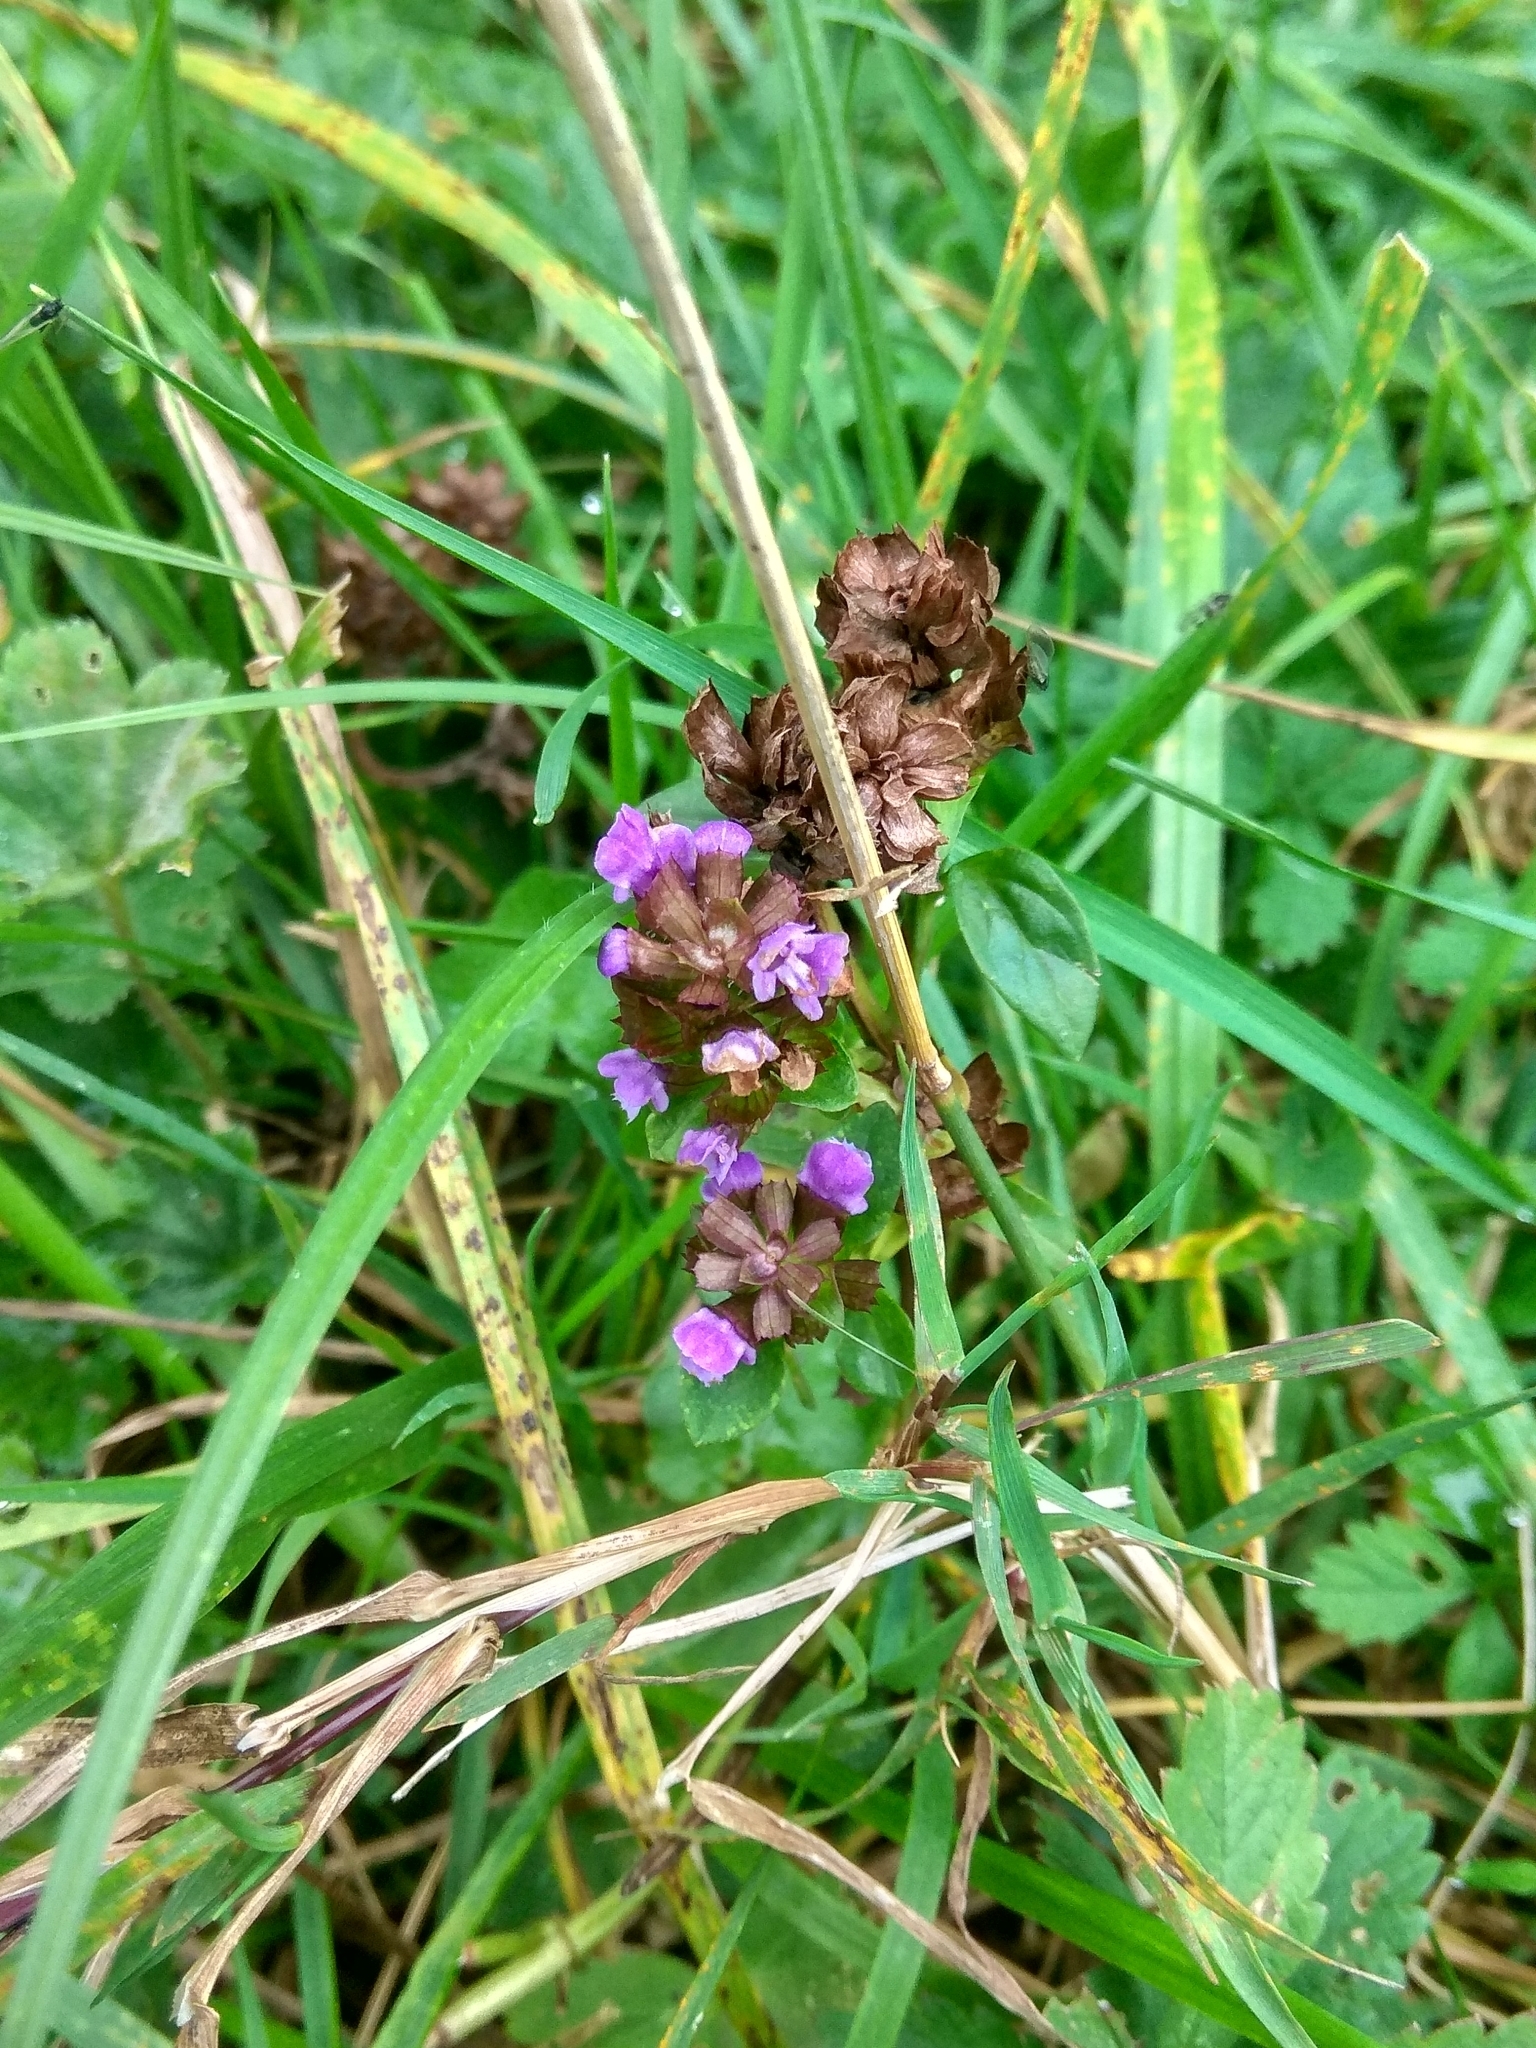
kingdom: Plantae
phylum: Tracheophyta
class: Magnoliopsida
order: Lamiales
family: Lamiaceae
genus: Prunella
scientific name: Prunella vulgaris
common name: Heal-all
